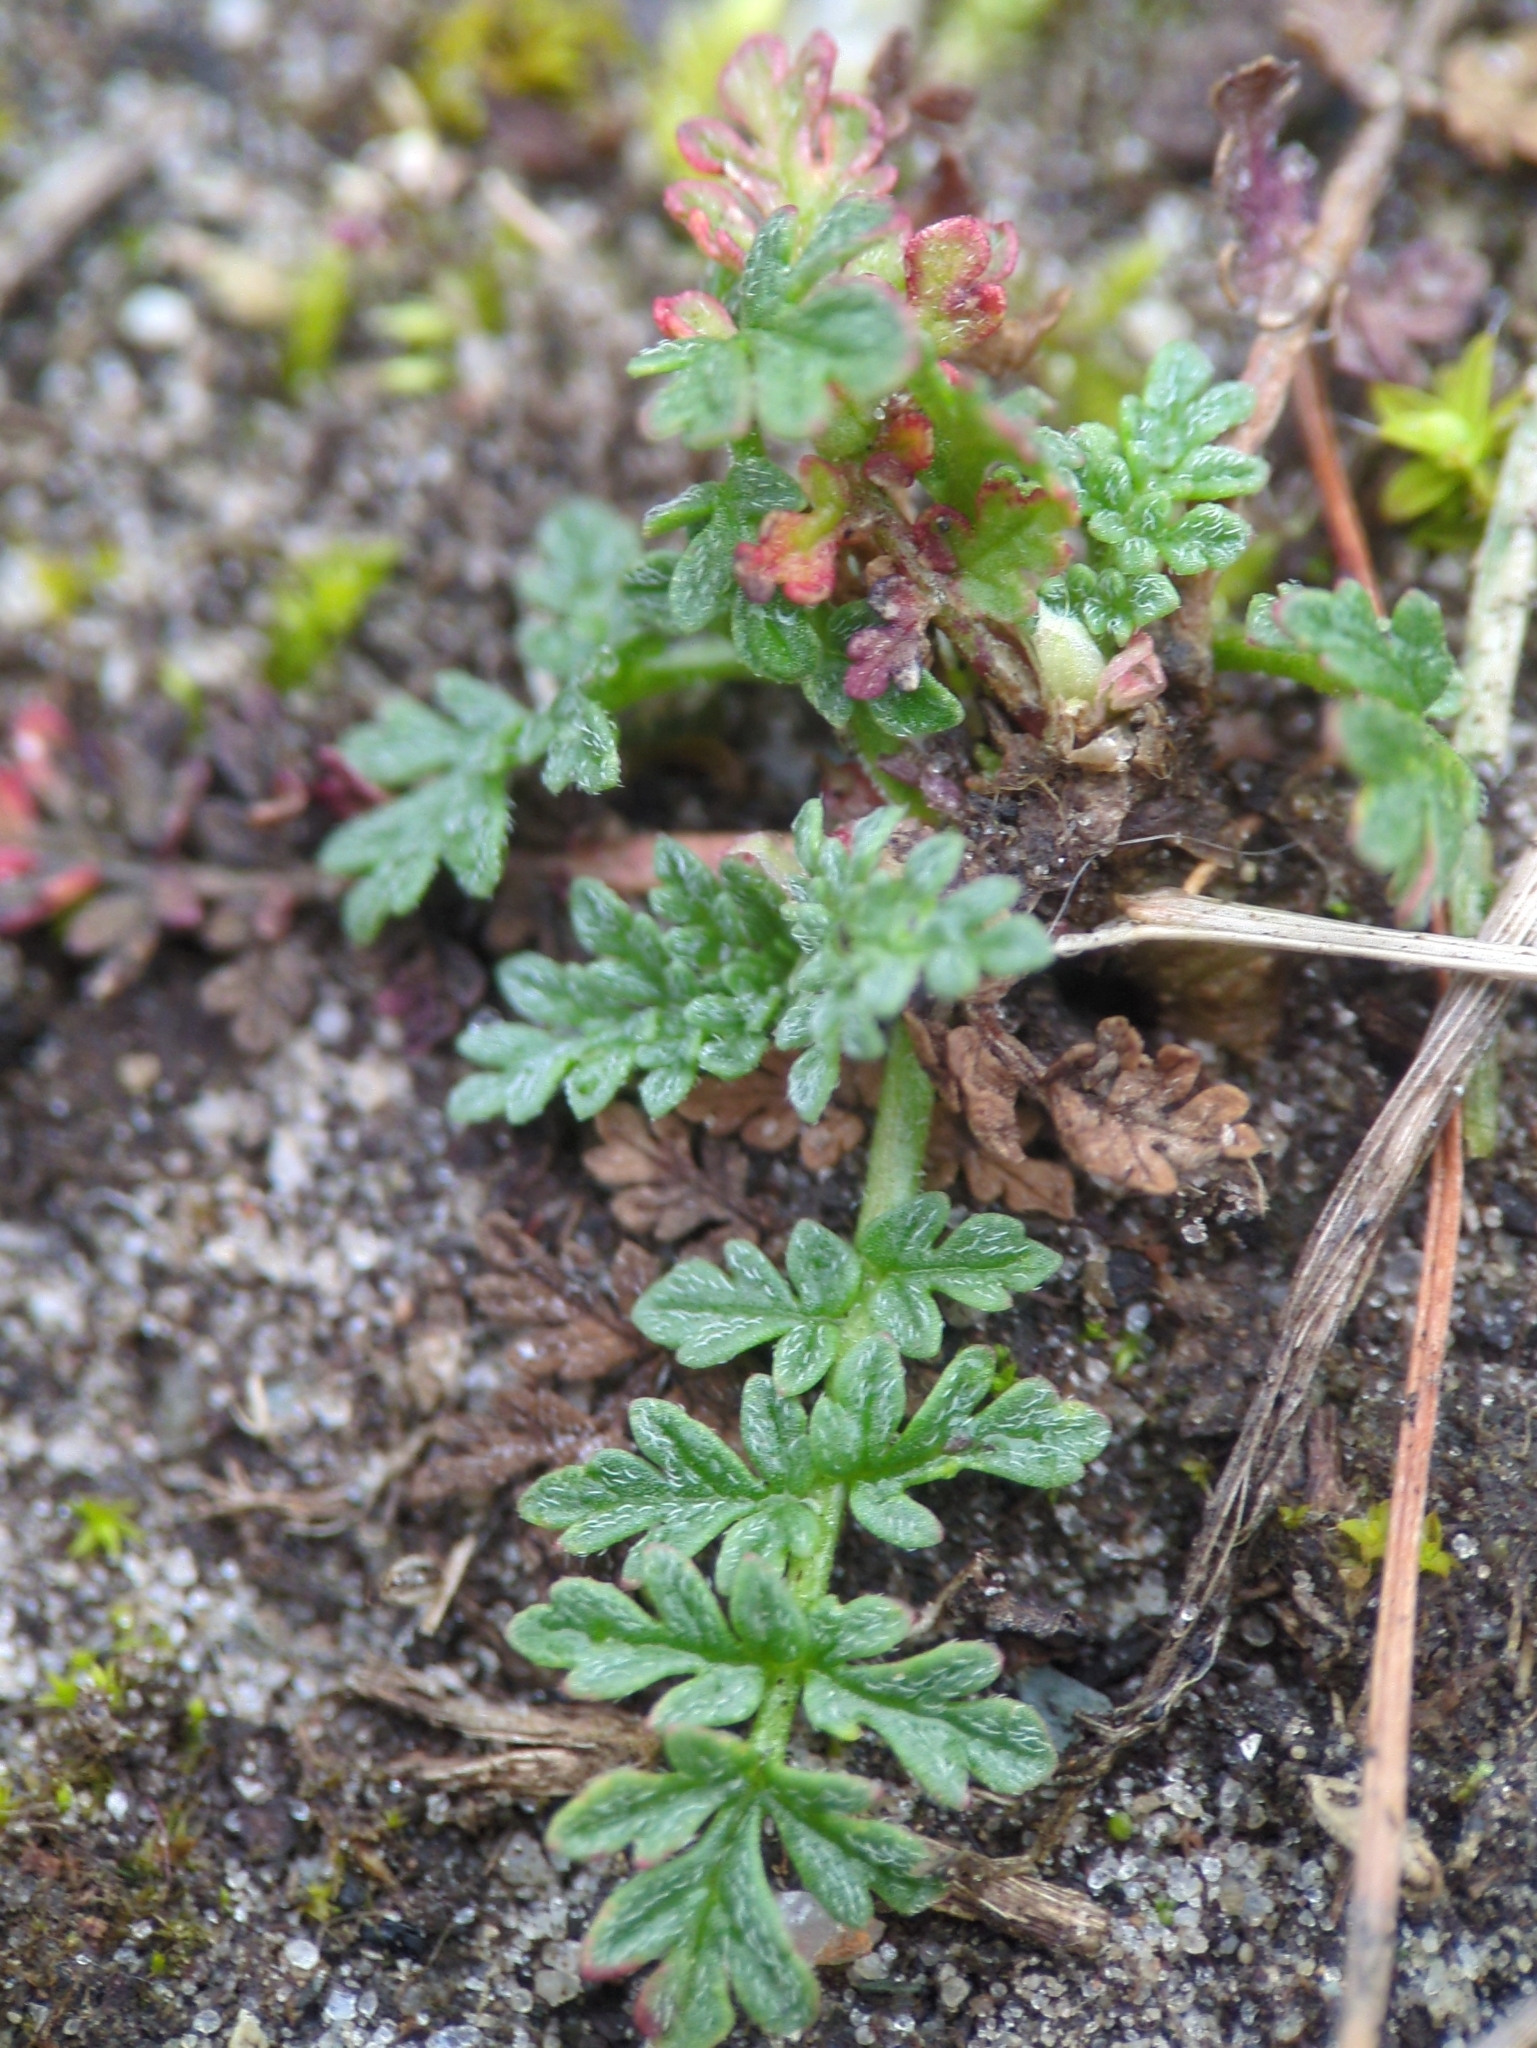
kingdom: Plantae
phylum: Tracheophyta
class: Magnoliopsida
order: Geraniales
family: Geraniaceae
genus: Erodium
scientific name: Erodium cicutarium
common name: Common stork's-bill
